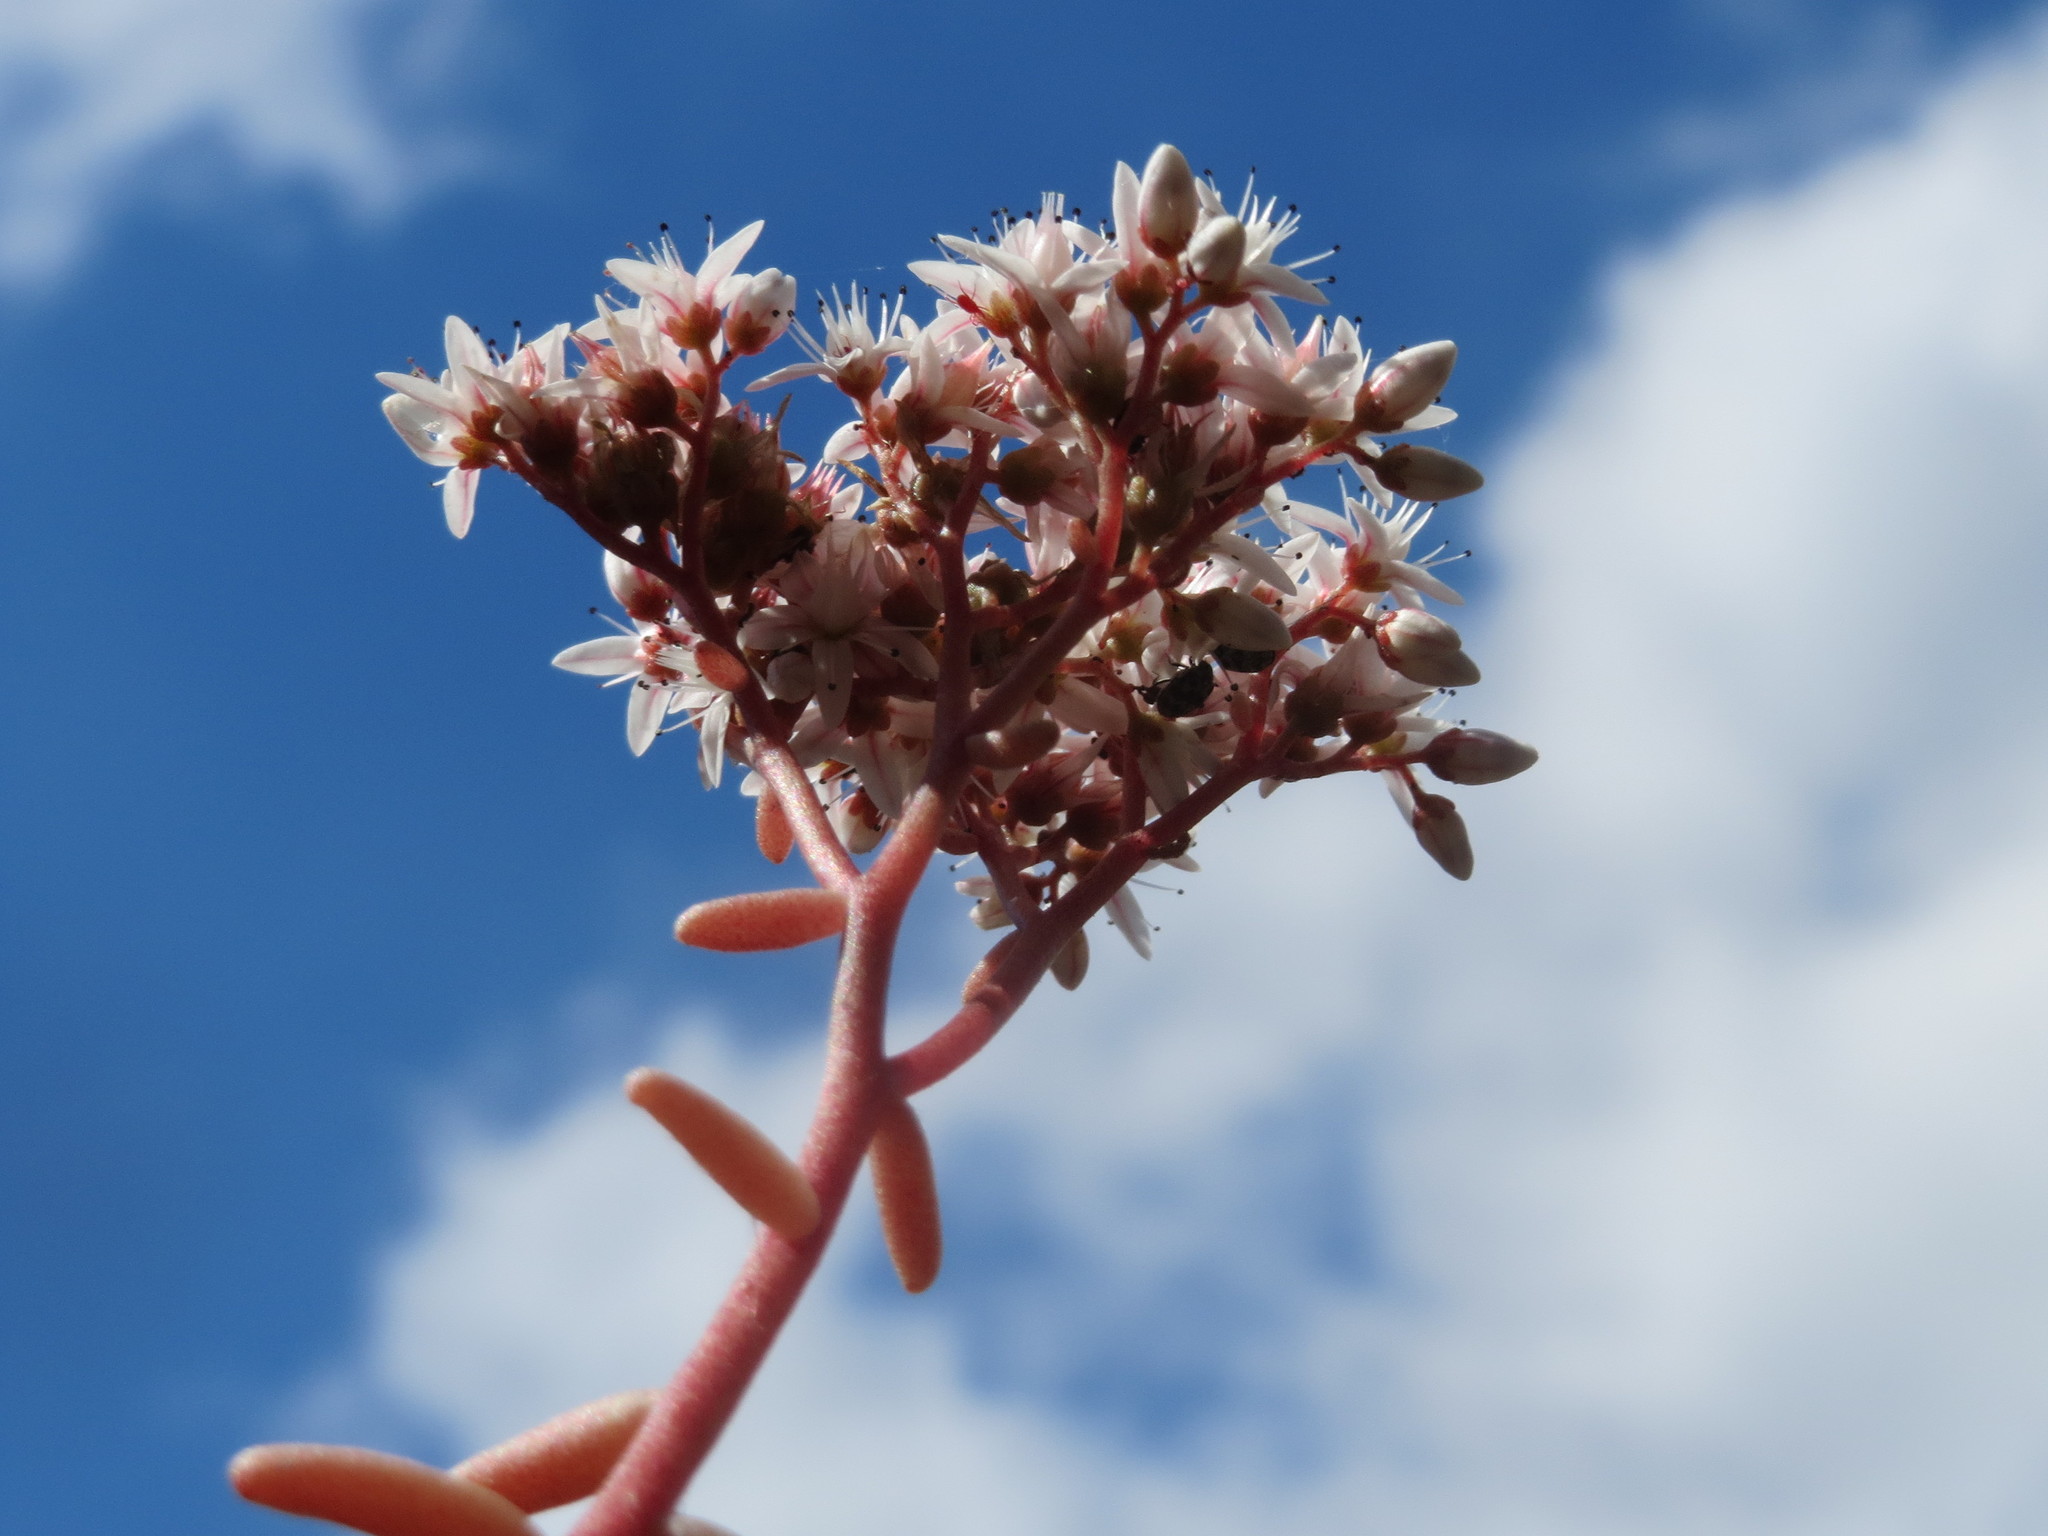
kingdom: Plantae
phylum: Tracheophyta
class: Magnoliopsida
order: Saxifragales
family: Crassulaceae
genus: Sedum
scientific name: Sedum album
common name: White stonecrop
